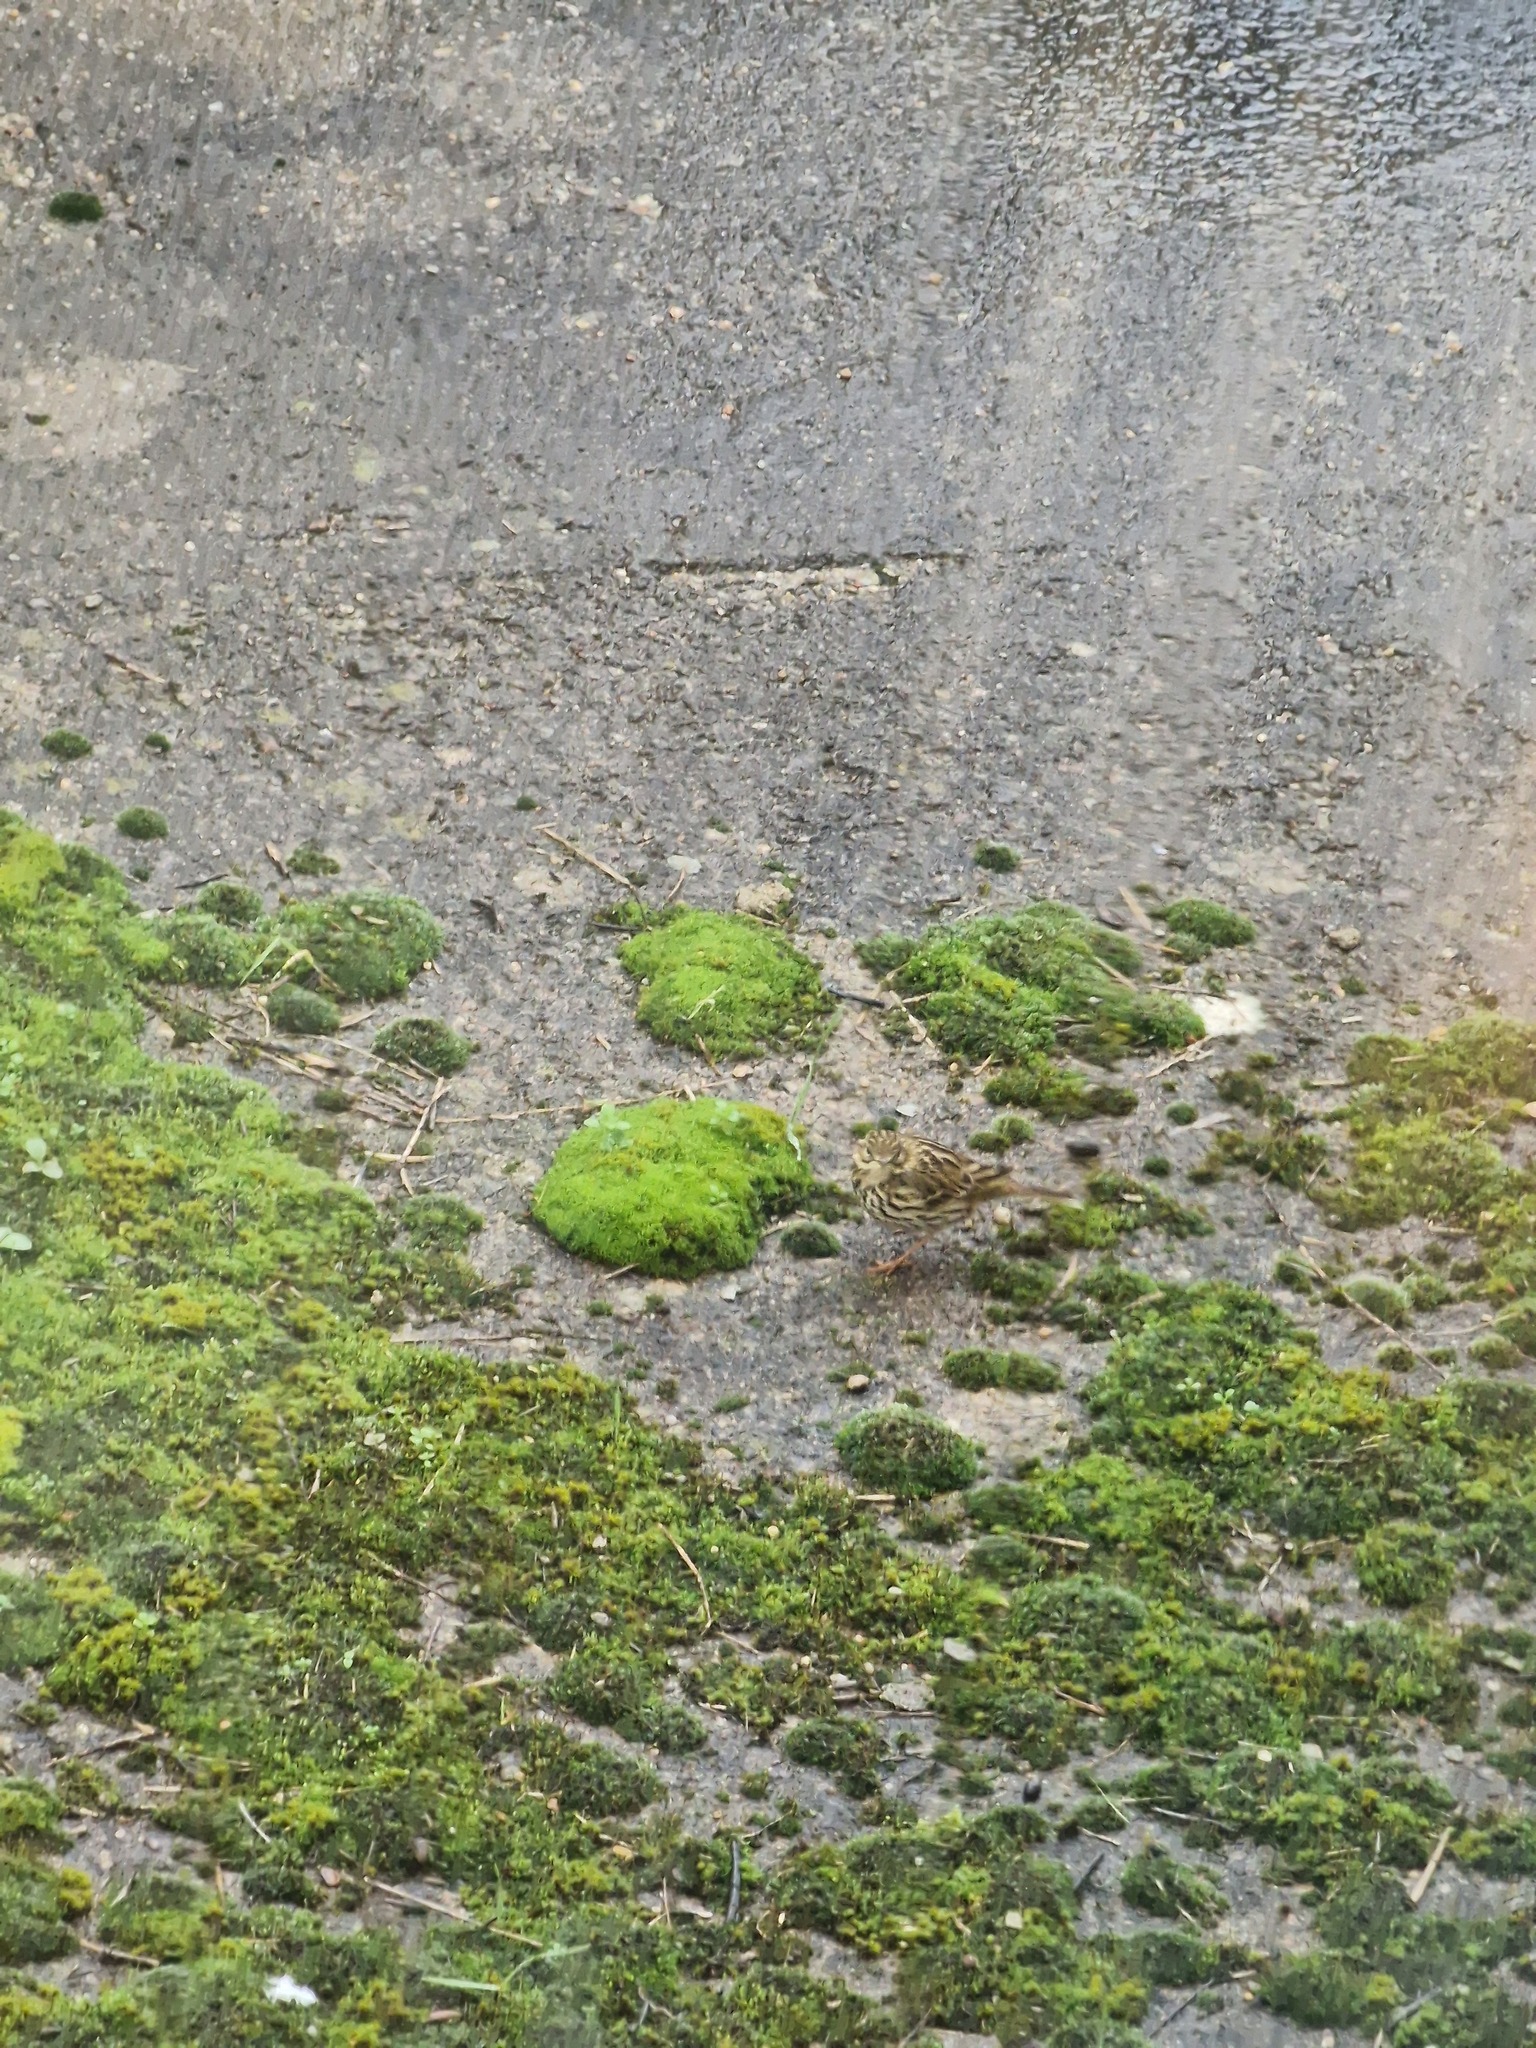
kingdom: Animalia
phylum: Chordata
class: Aves
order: Passeriformes
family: Motacillidae
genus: Anthus
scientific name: Anthus pratensis
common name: Meadow pipit
